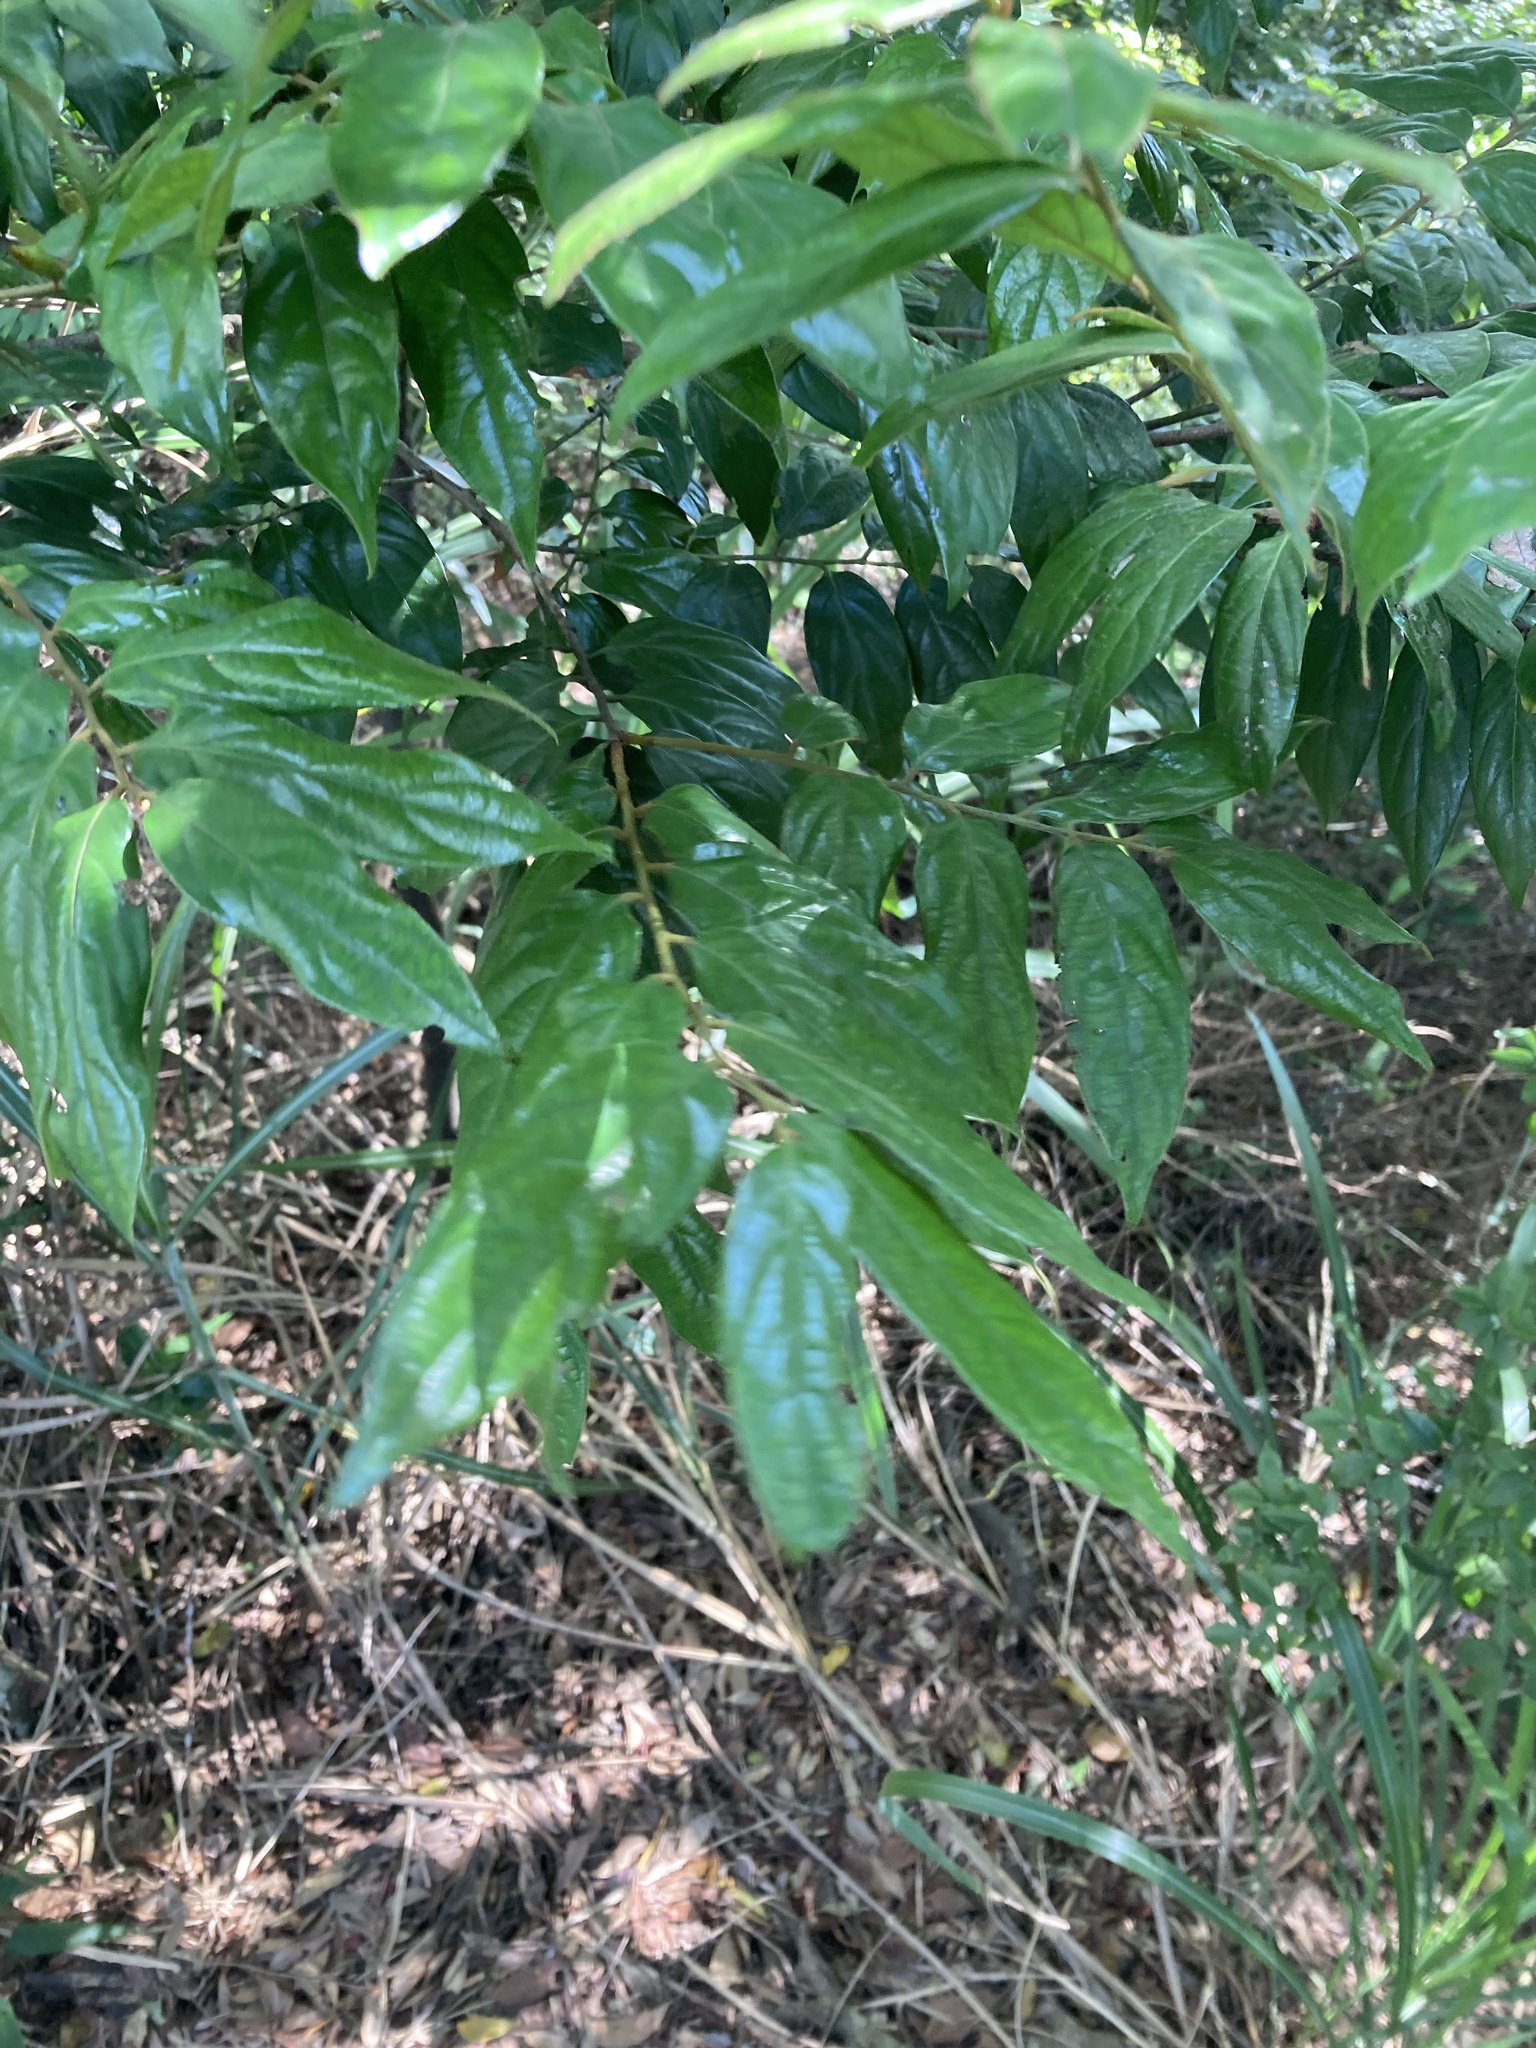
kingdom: Plantae
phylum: Tracheophyta
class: Magnoliopsida
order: Ericales
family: Ebenaceae
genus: Diospyros
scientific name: Diospyros eriantha
